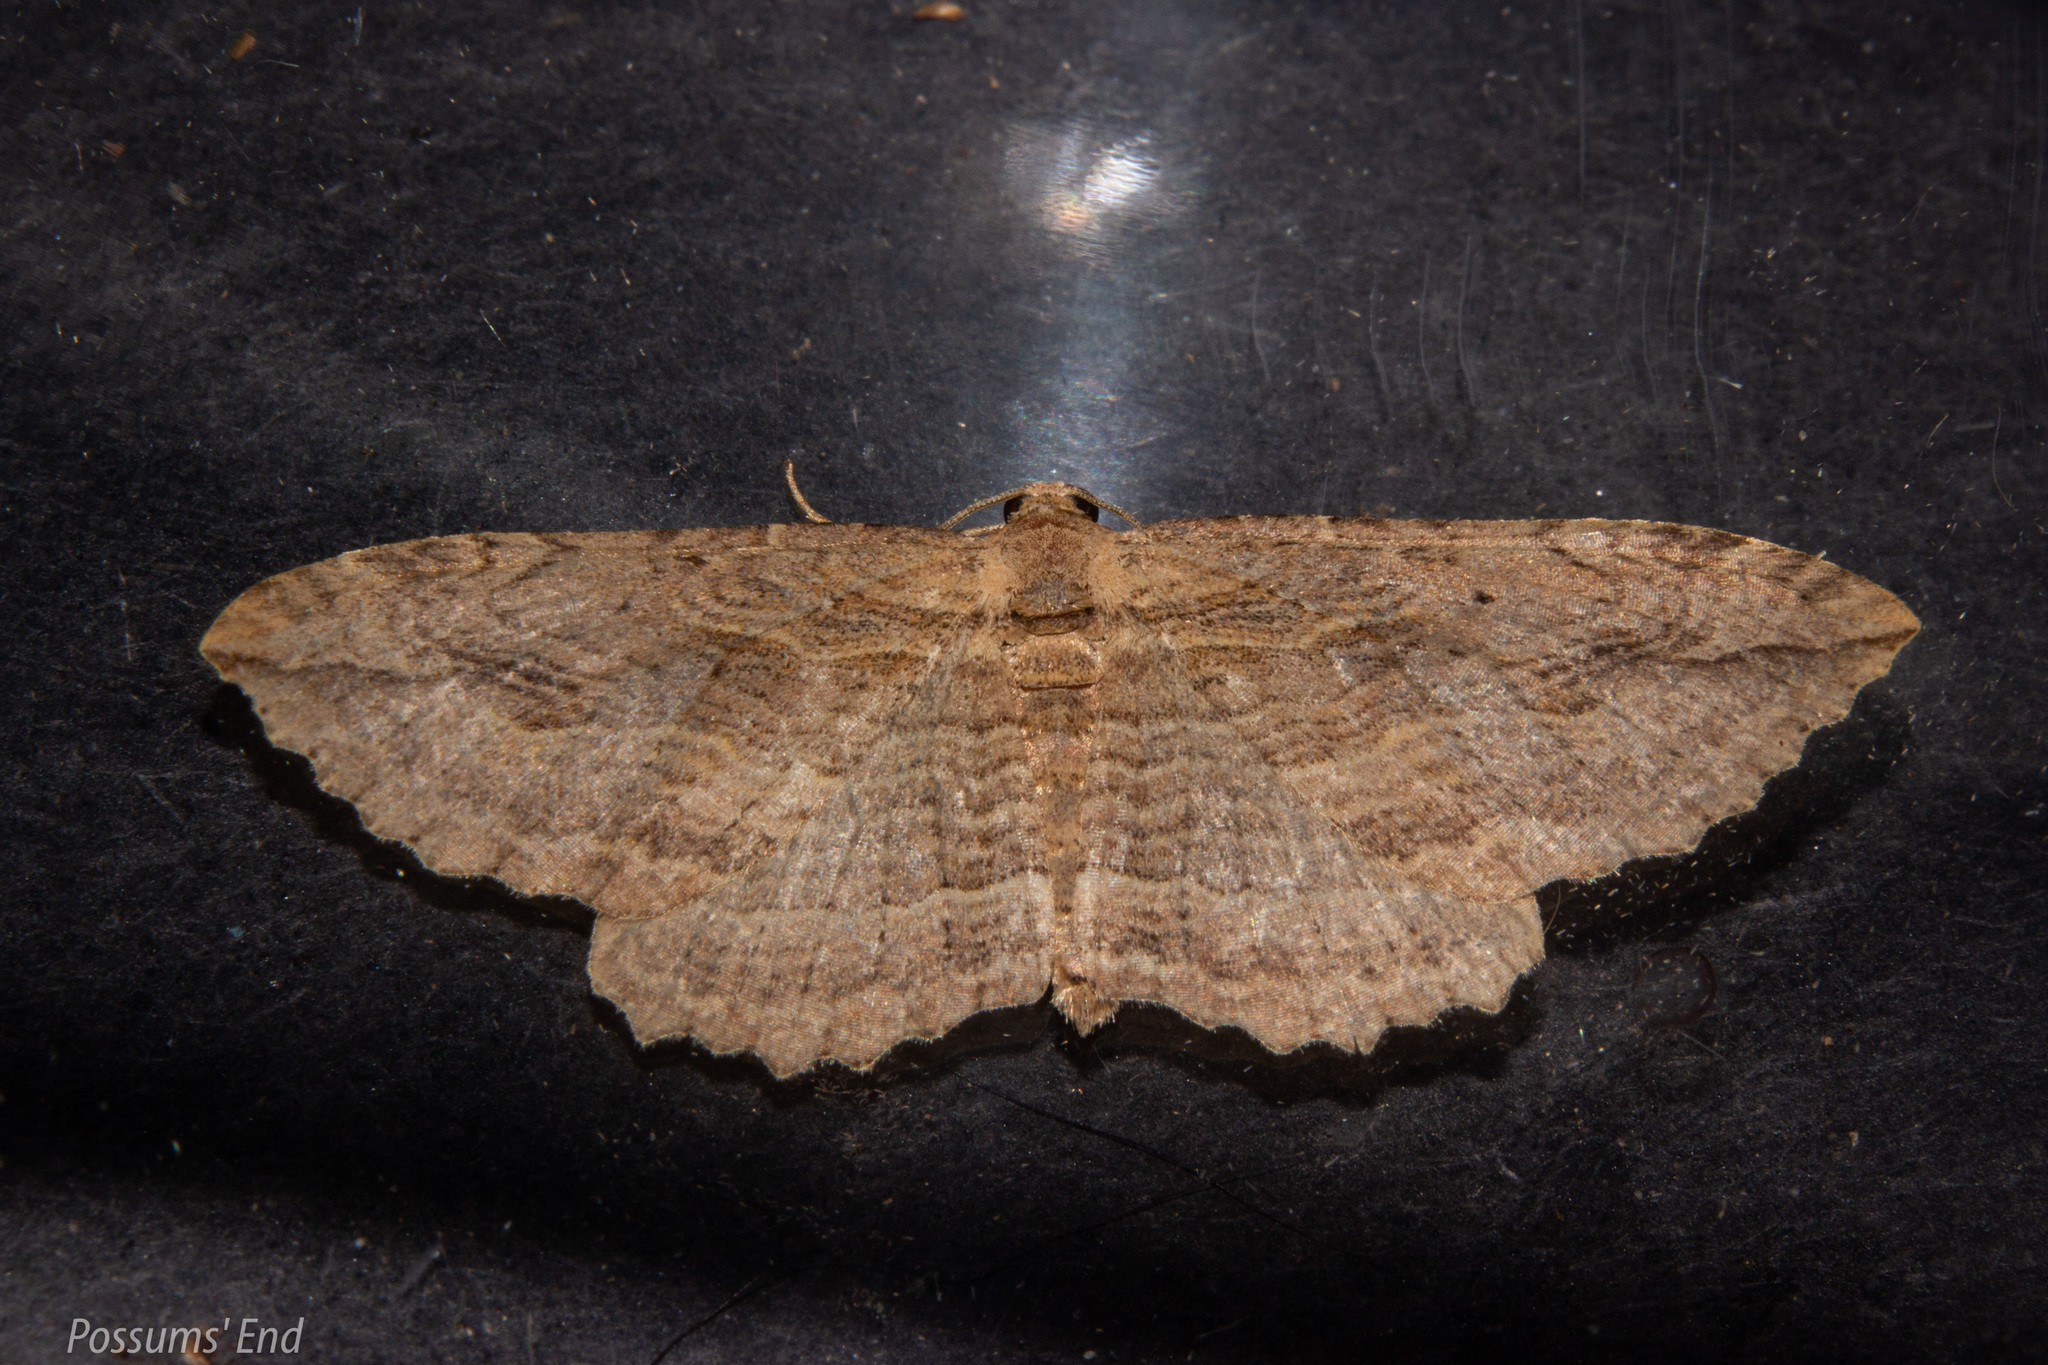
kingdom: Animalia
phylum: Arthropoda
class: Insecta
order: Lepidoptera
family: Geometridae
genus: Austrocidaria
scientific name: Austrocidaria bipartita
